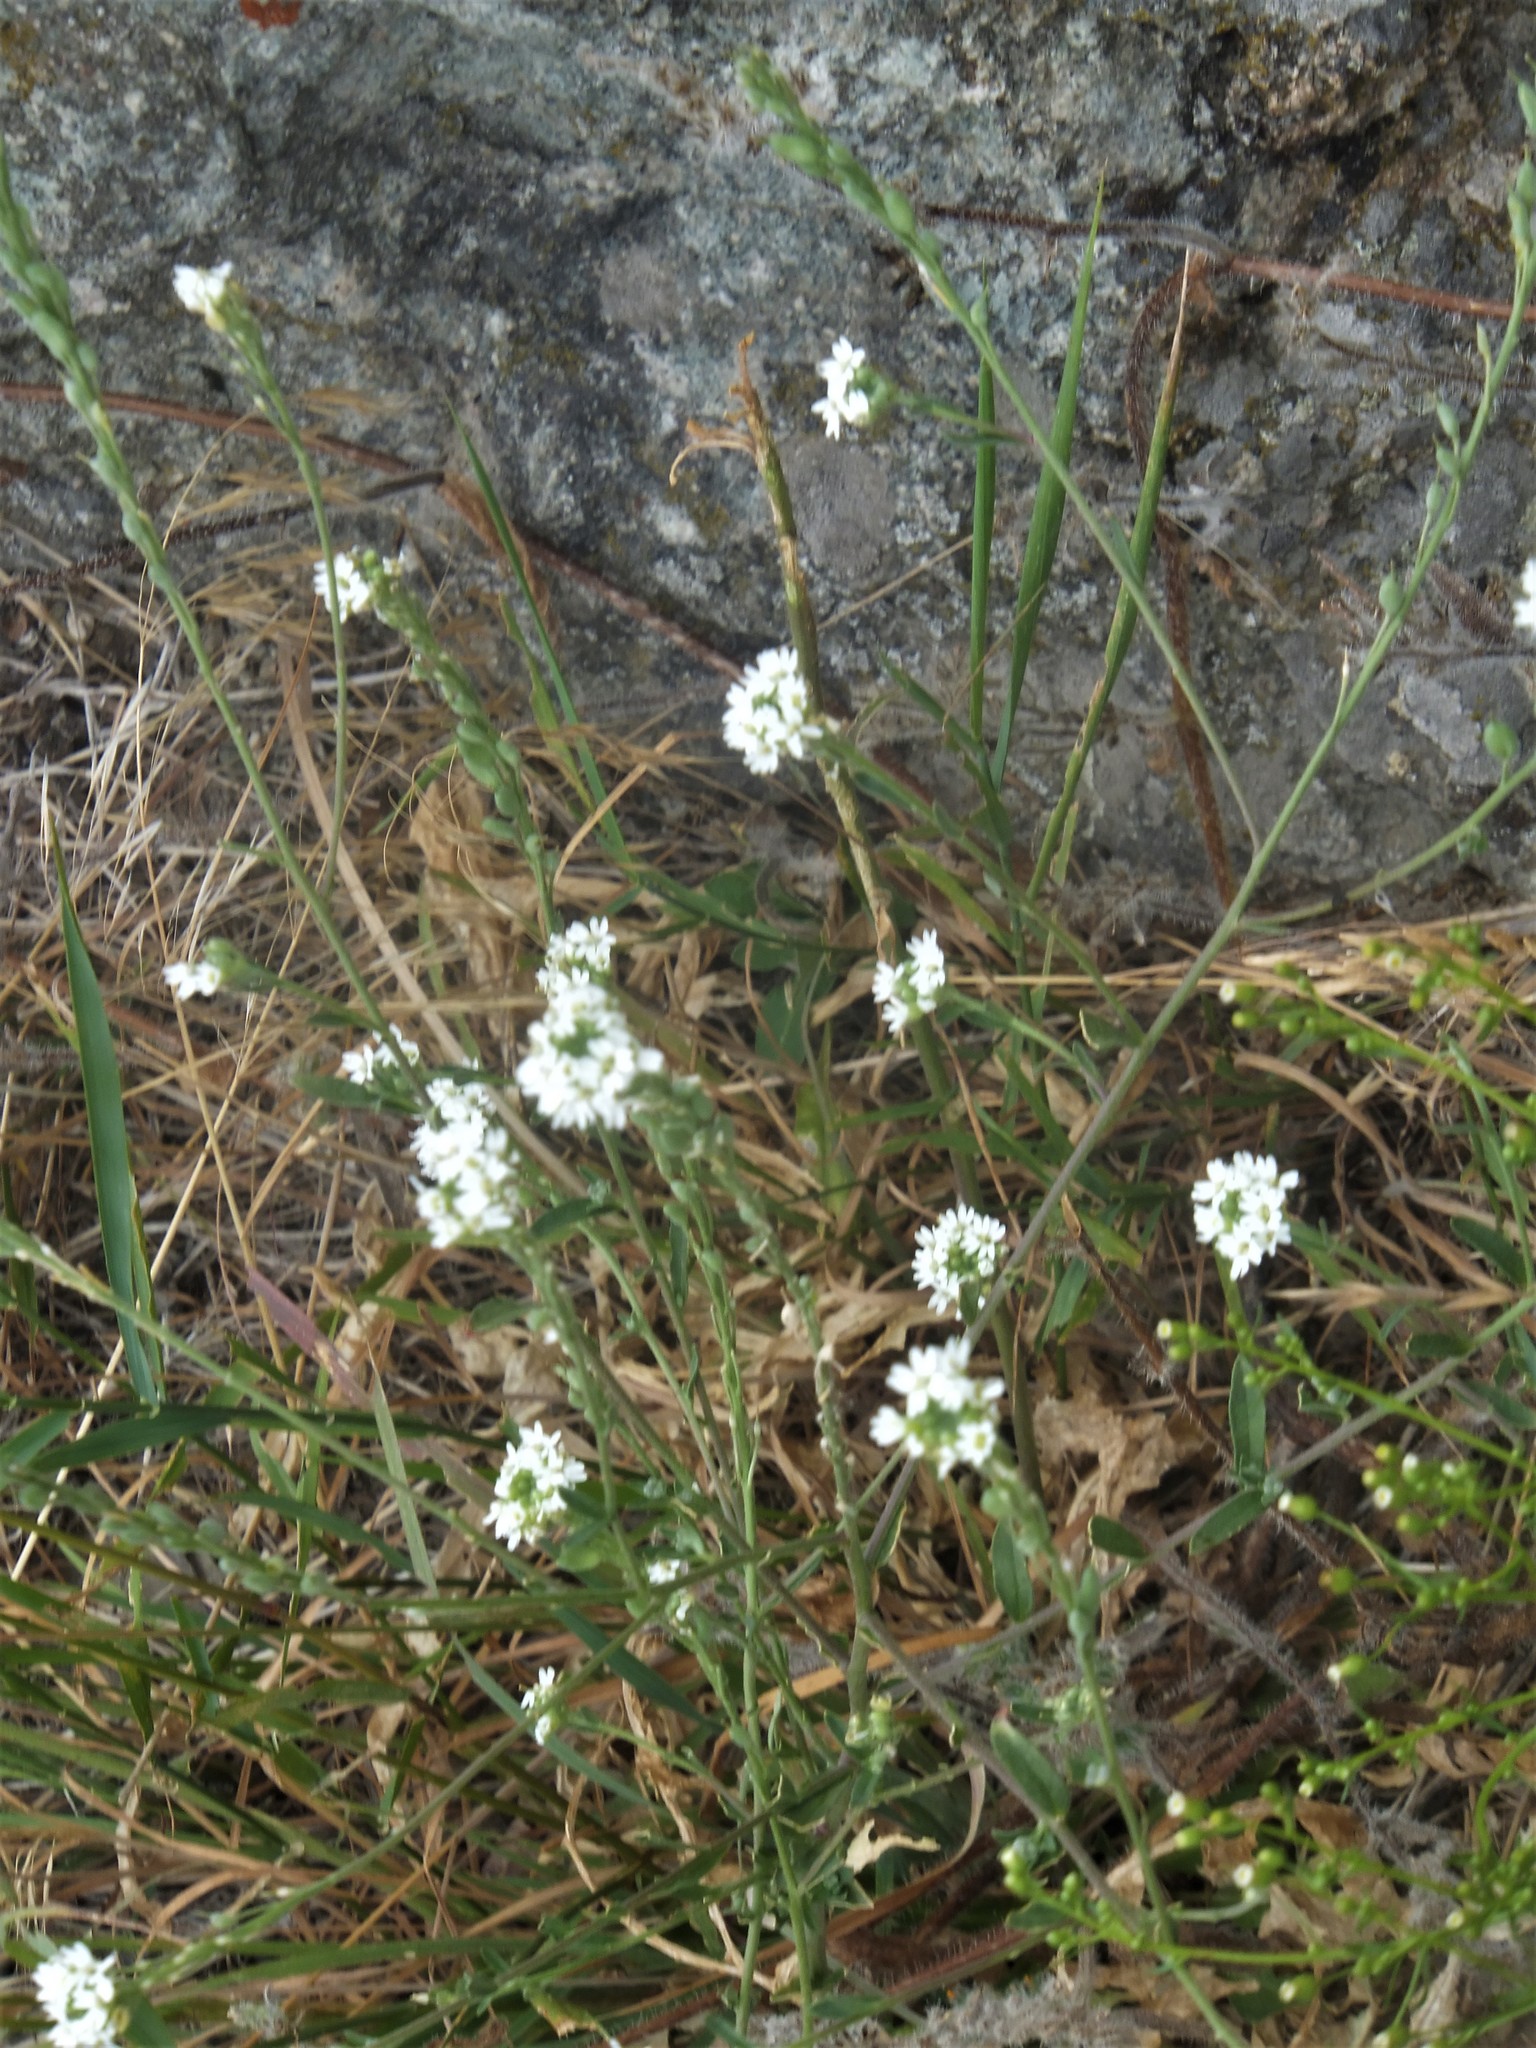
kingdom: Plantae
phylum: Tracheophyta
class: Magnoliopsida
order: Brassicales
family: Brassicaceae
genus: Berteroa
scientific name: Berteroa incana
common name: Hoary alison
